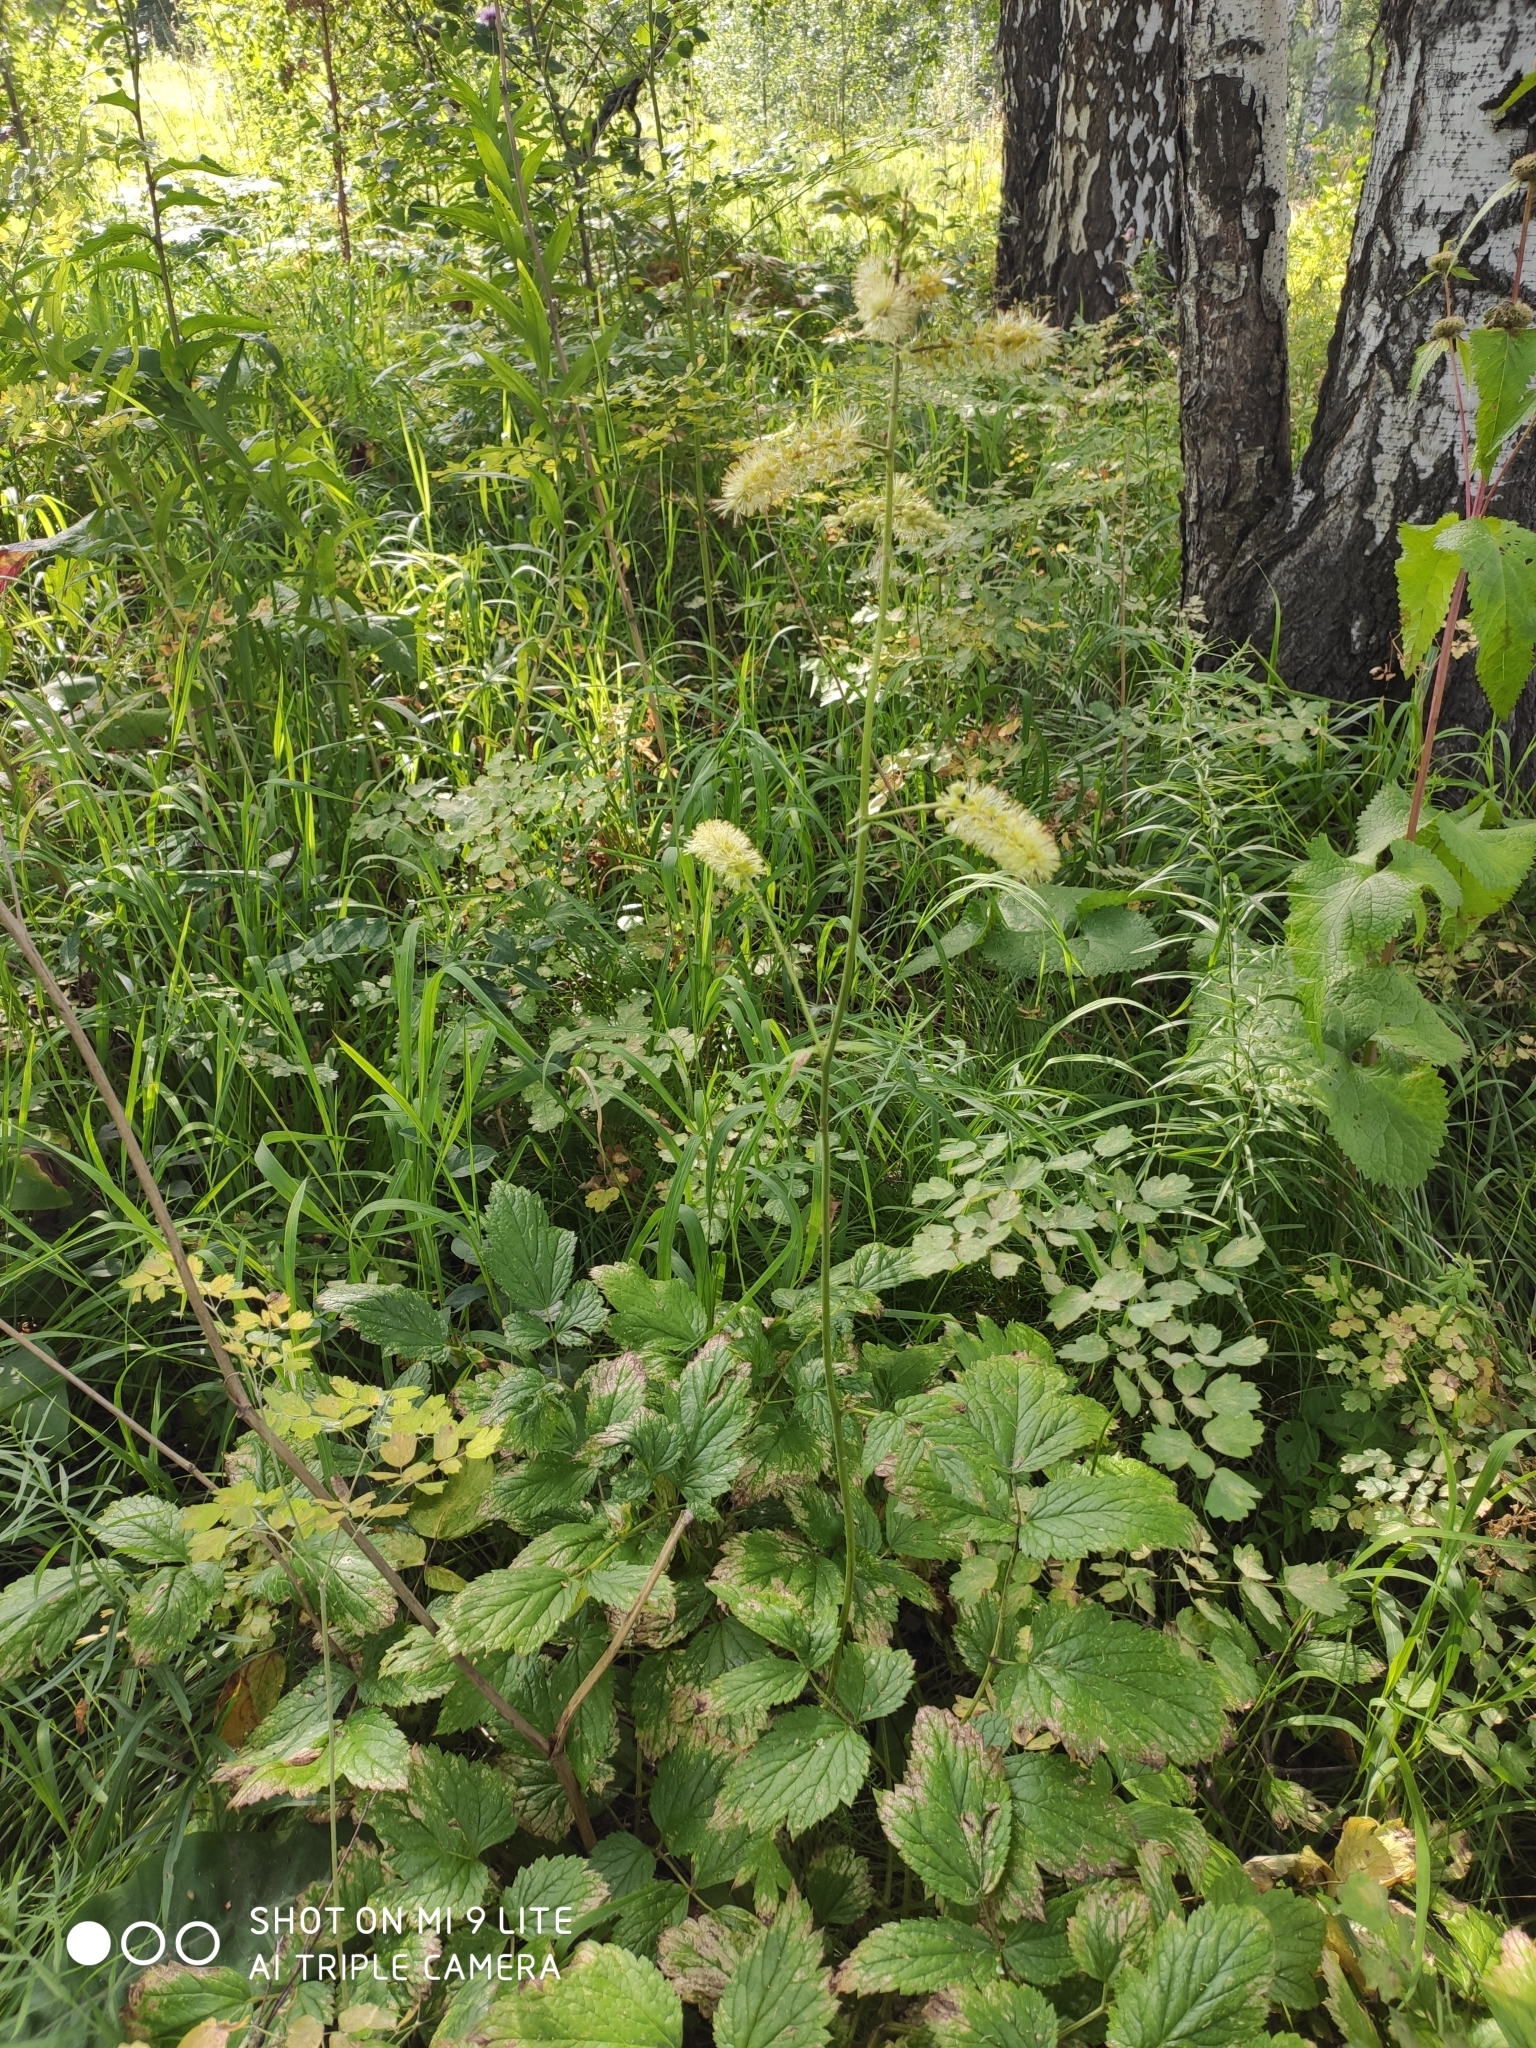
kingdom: Plantae
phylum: Tracheophyta
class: Magnoliopsida
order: Ranunculales
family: Ranunculaceae
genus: Actaea
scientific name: Actaea cimicifuga
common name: Chinese cimicifuga
